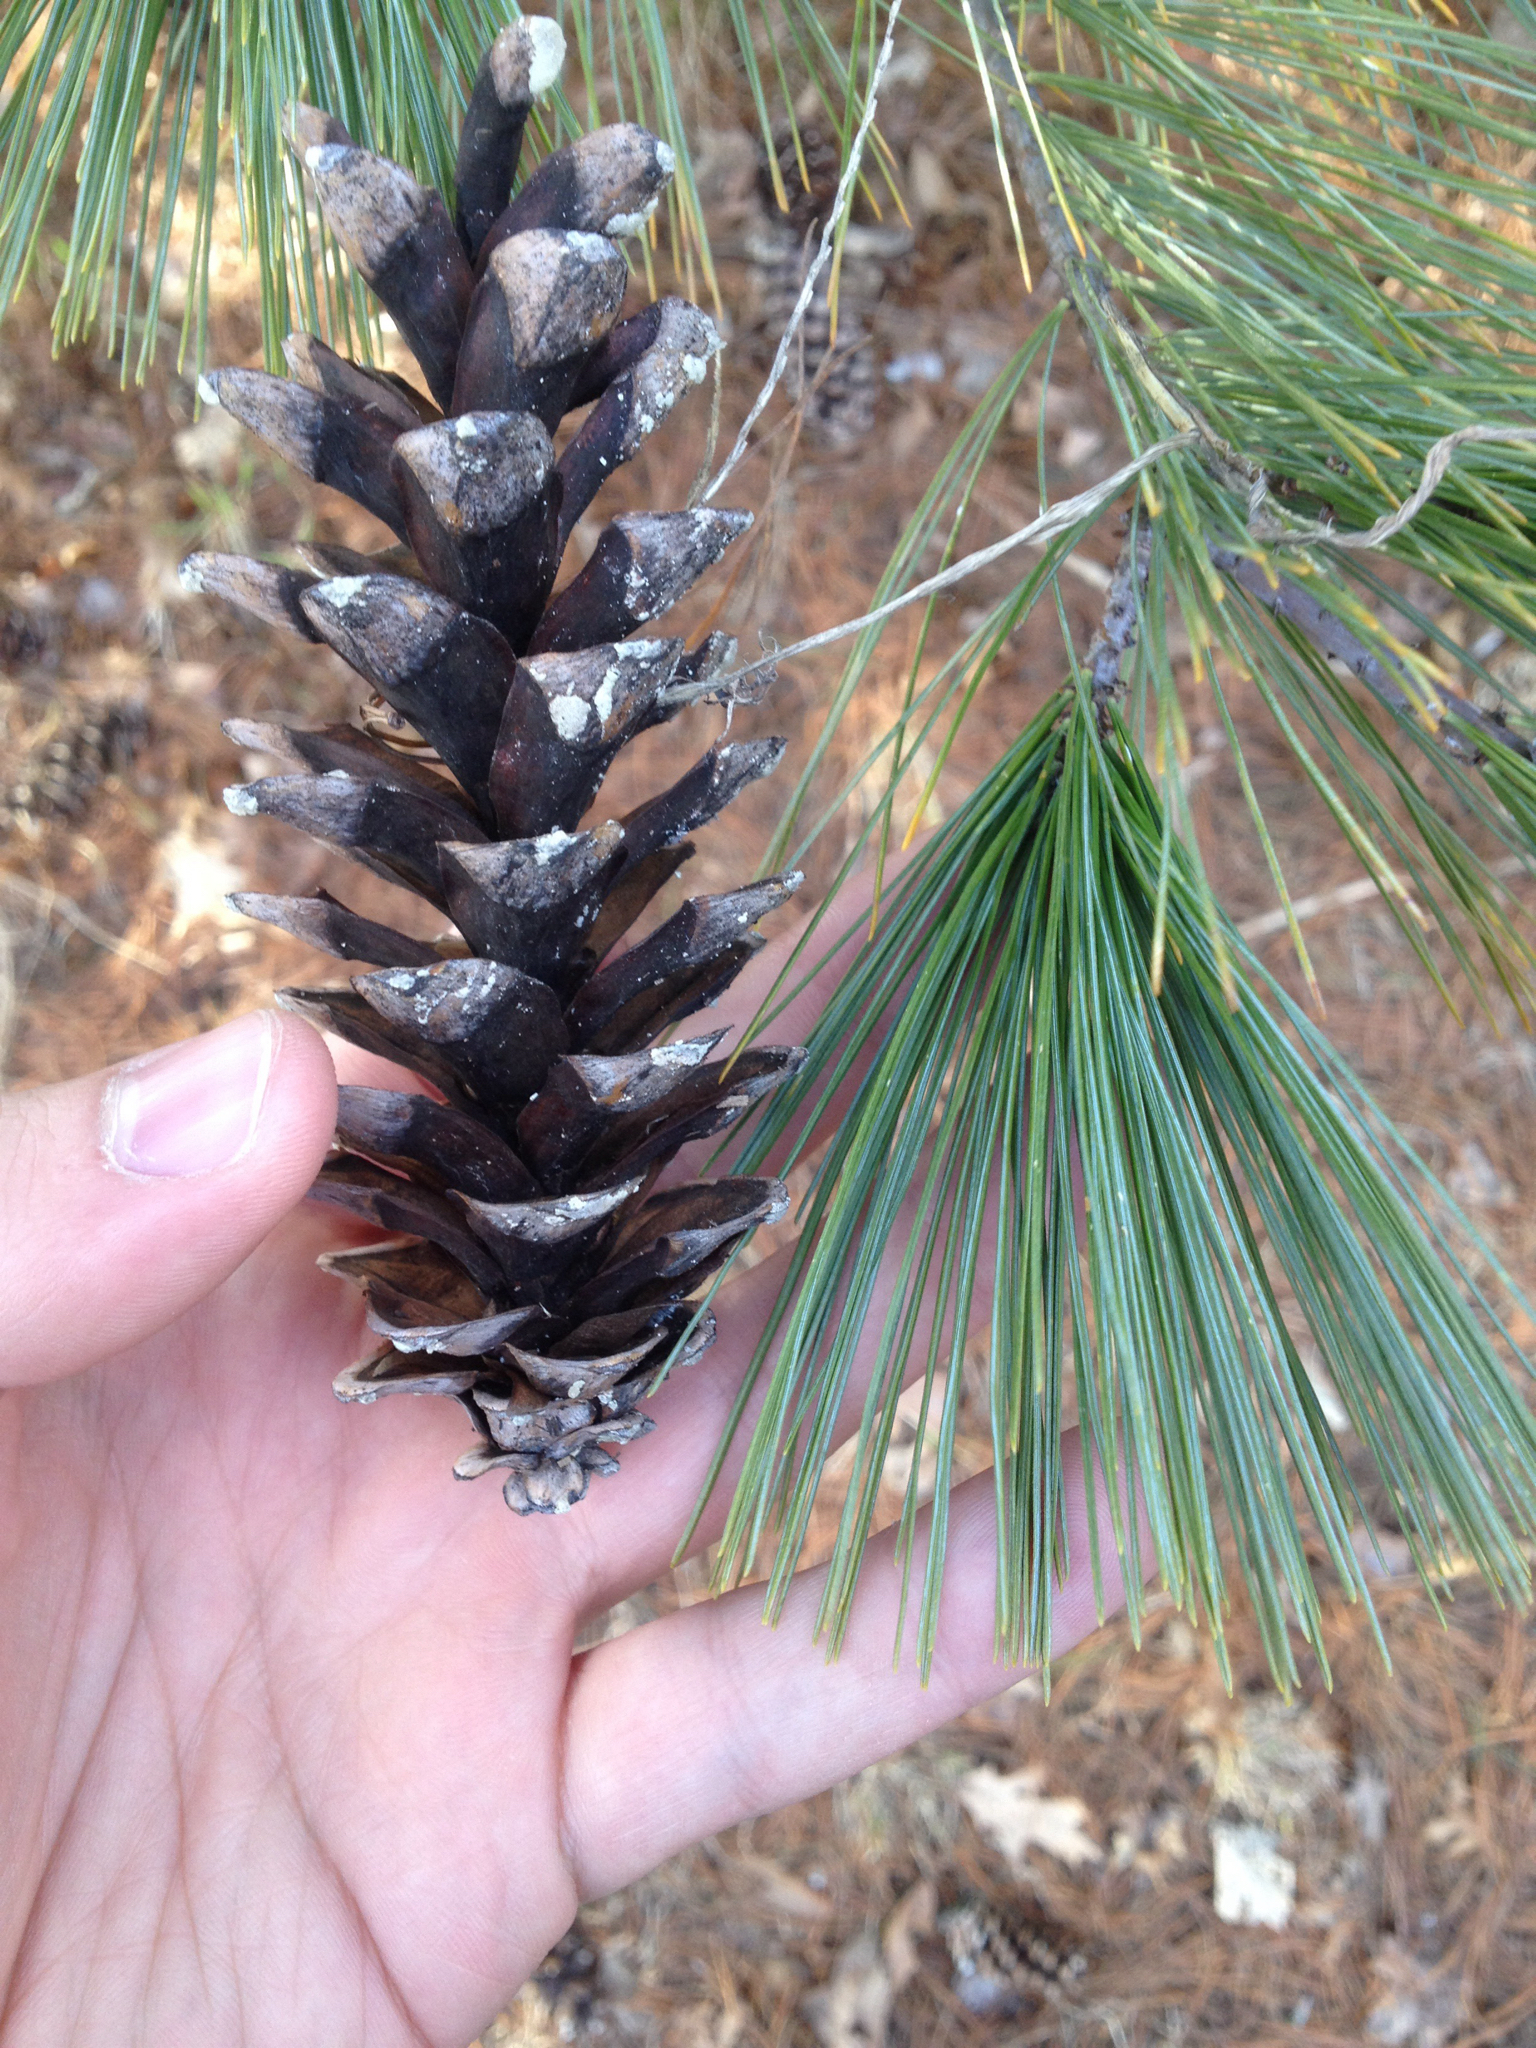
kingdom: Plantae
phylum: Tracheophyta
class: Pinopsida
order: Pinales
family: Pinaceae
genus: Pinus
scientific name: Pinus strobus
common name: Weymouth pine
